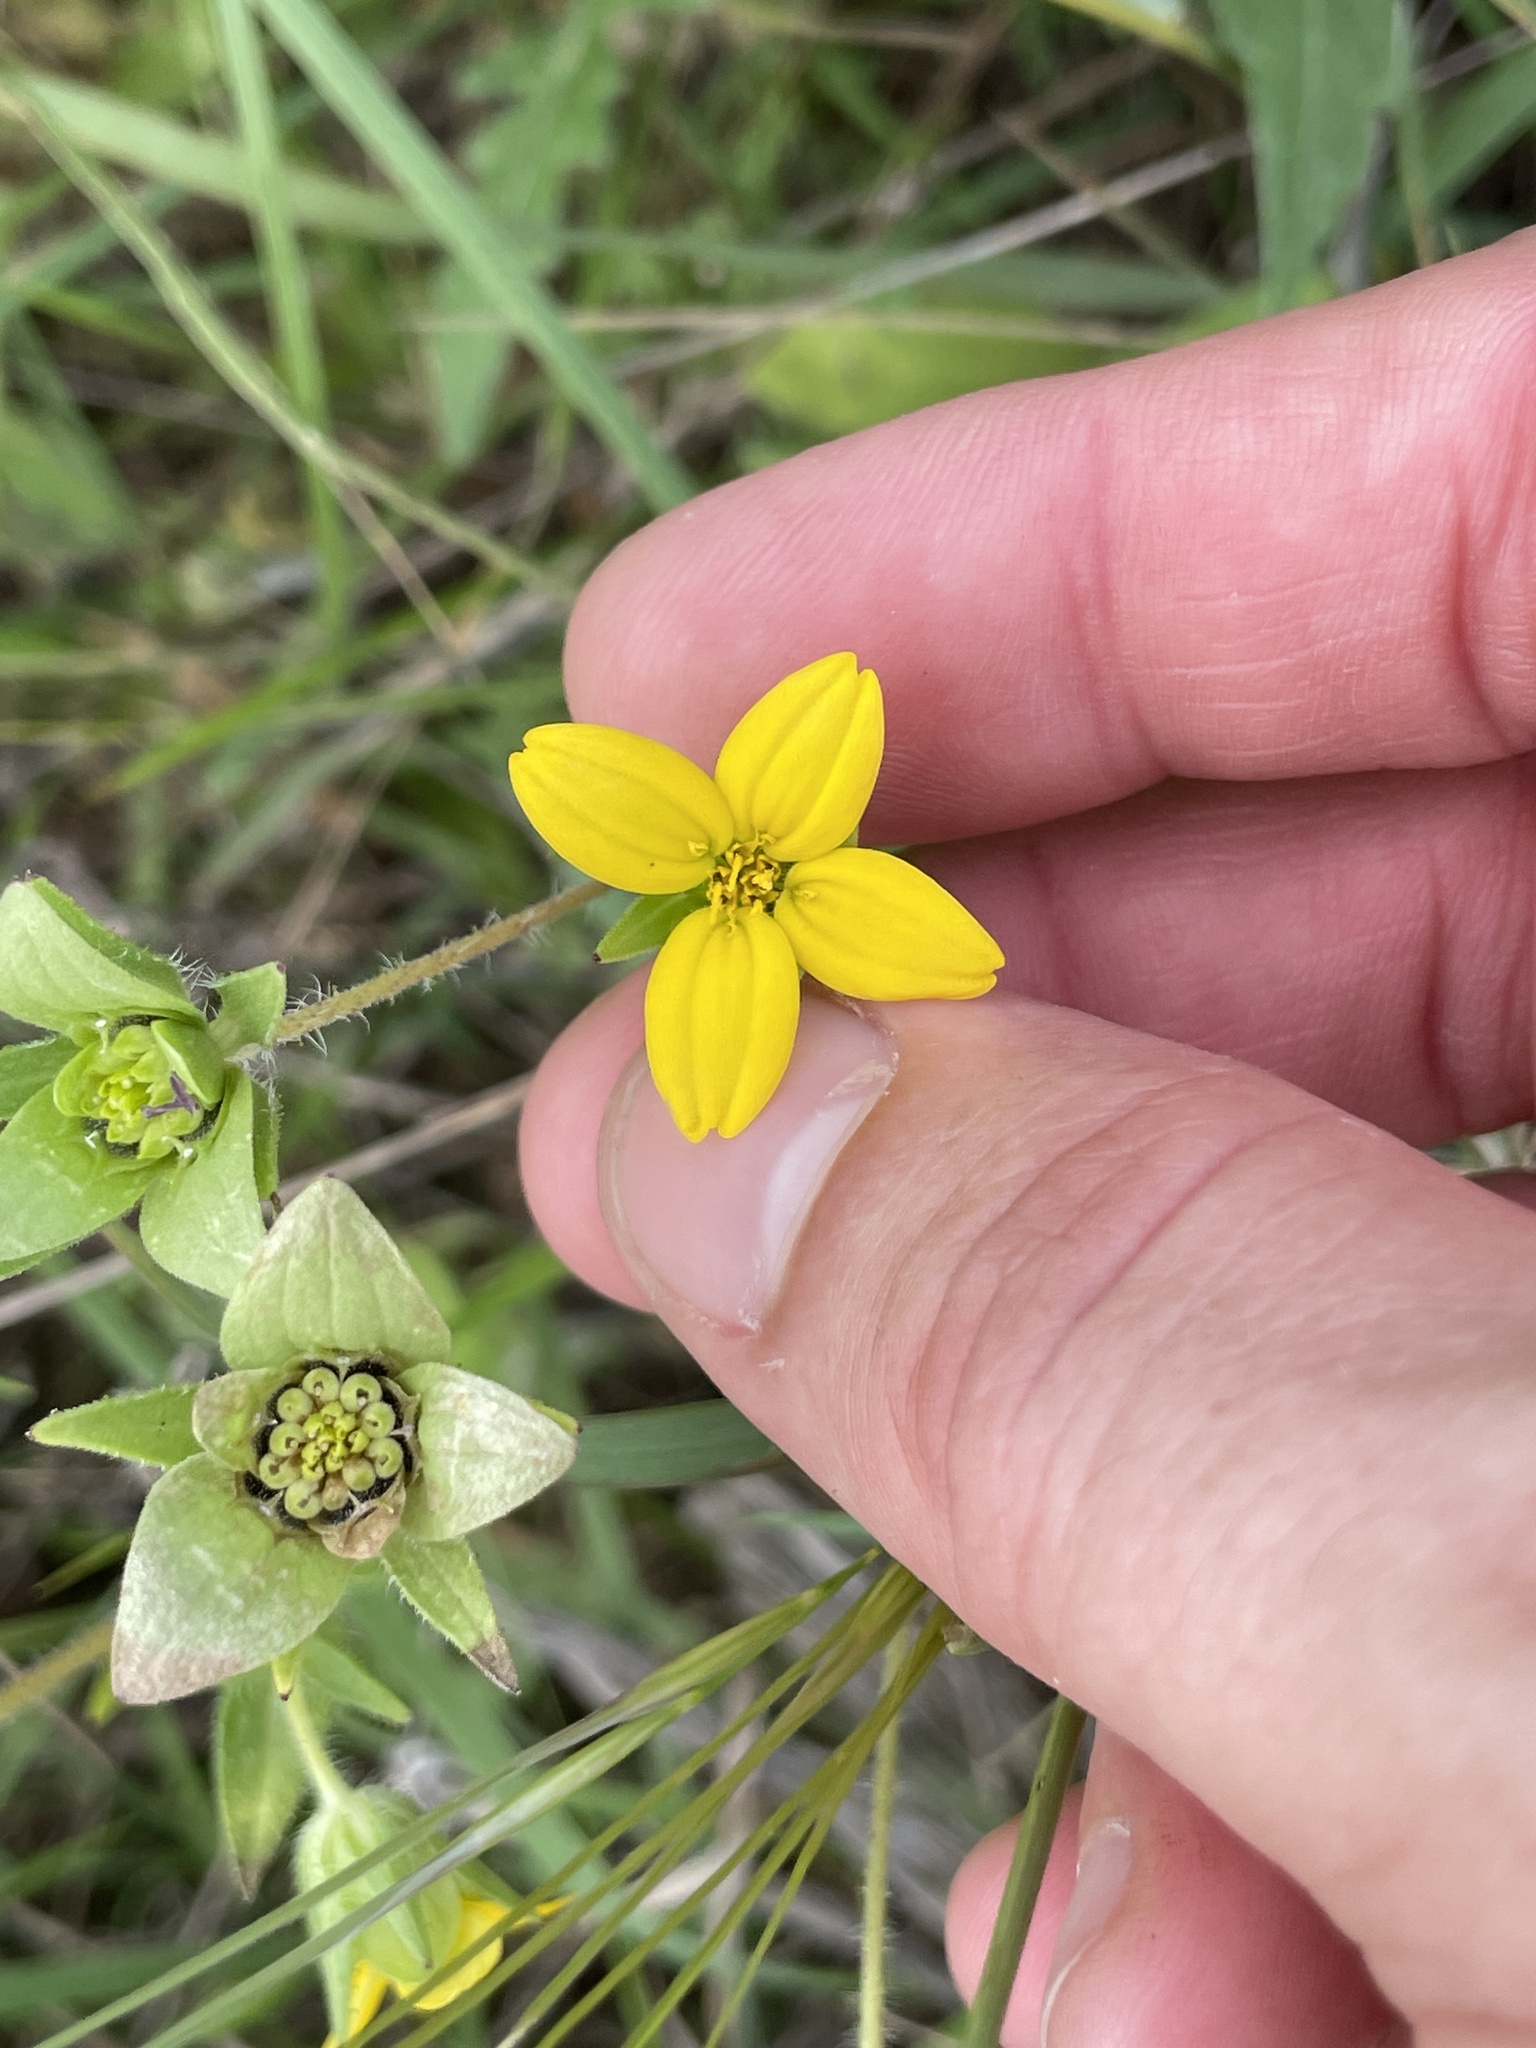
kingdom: Plantae
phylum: Tracheophyta
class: Magnoliopsida
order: Asterales
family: Asteraceae
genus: Lindheimera
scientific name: Lindheimera texana
